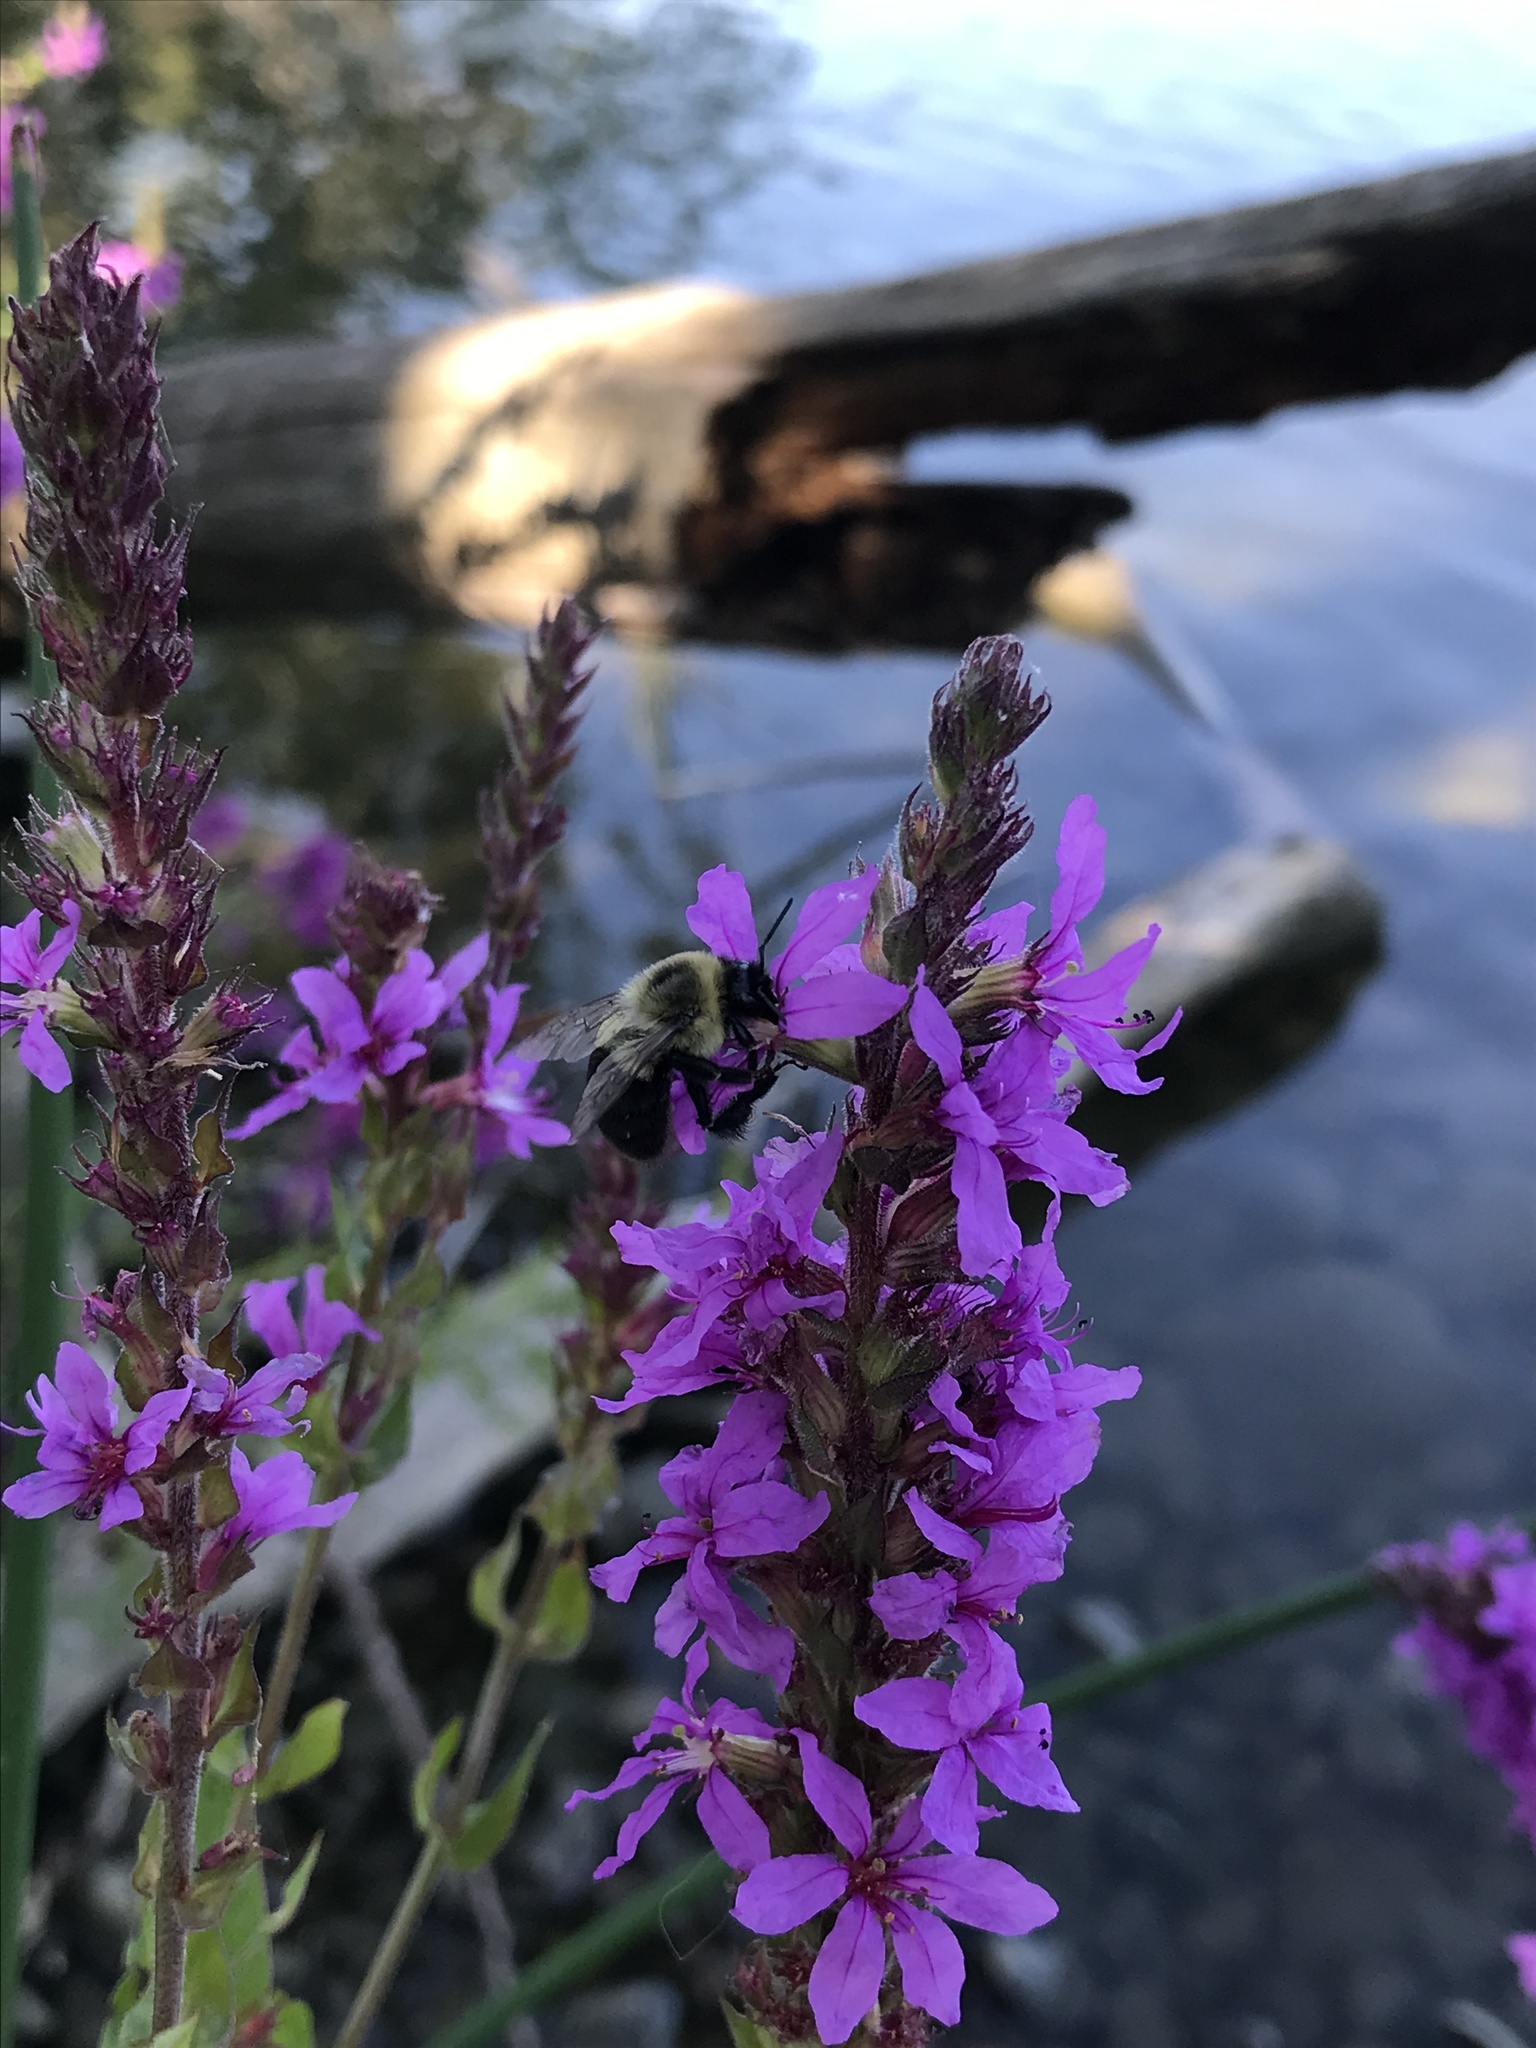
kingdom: Animalia
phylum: Arthropoda
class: Insecta
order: Hymenoptera
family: Apidae
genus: Bombus
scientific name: Bombus impatiens
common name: Common eastern bumble bee
